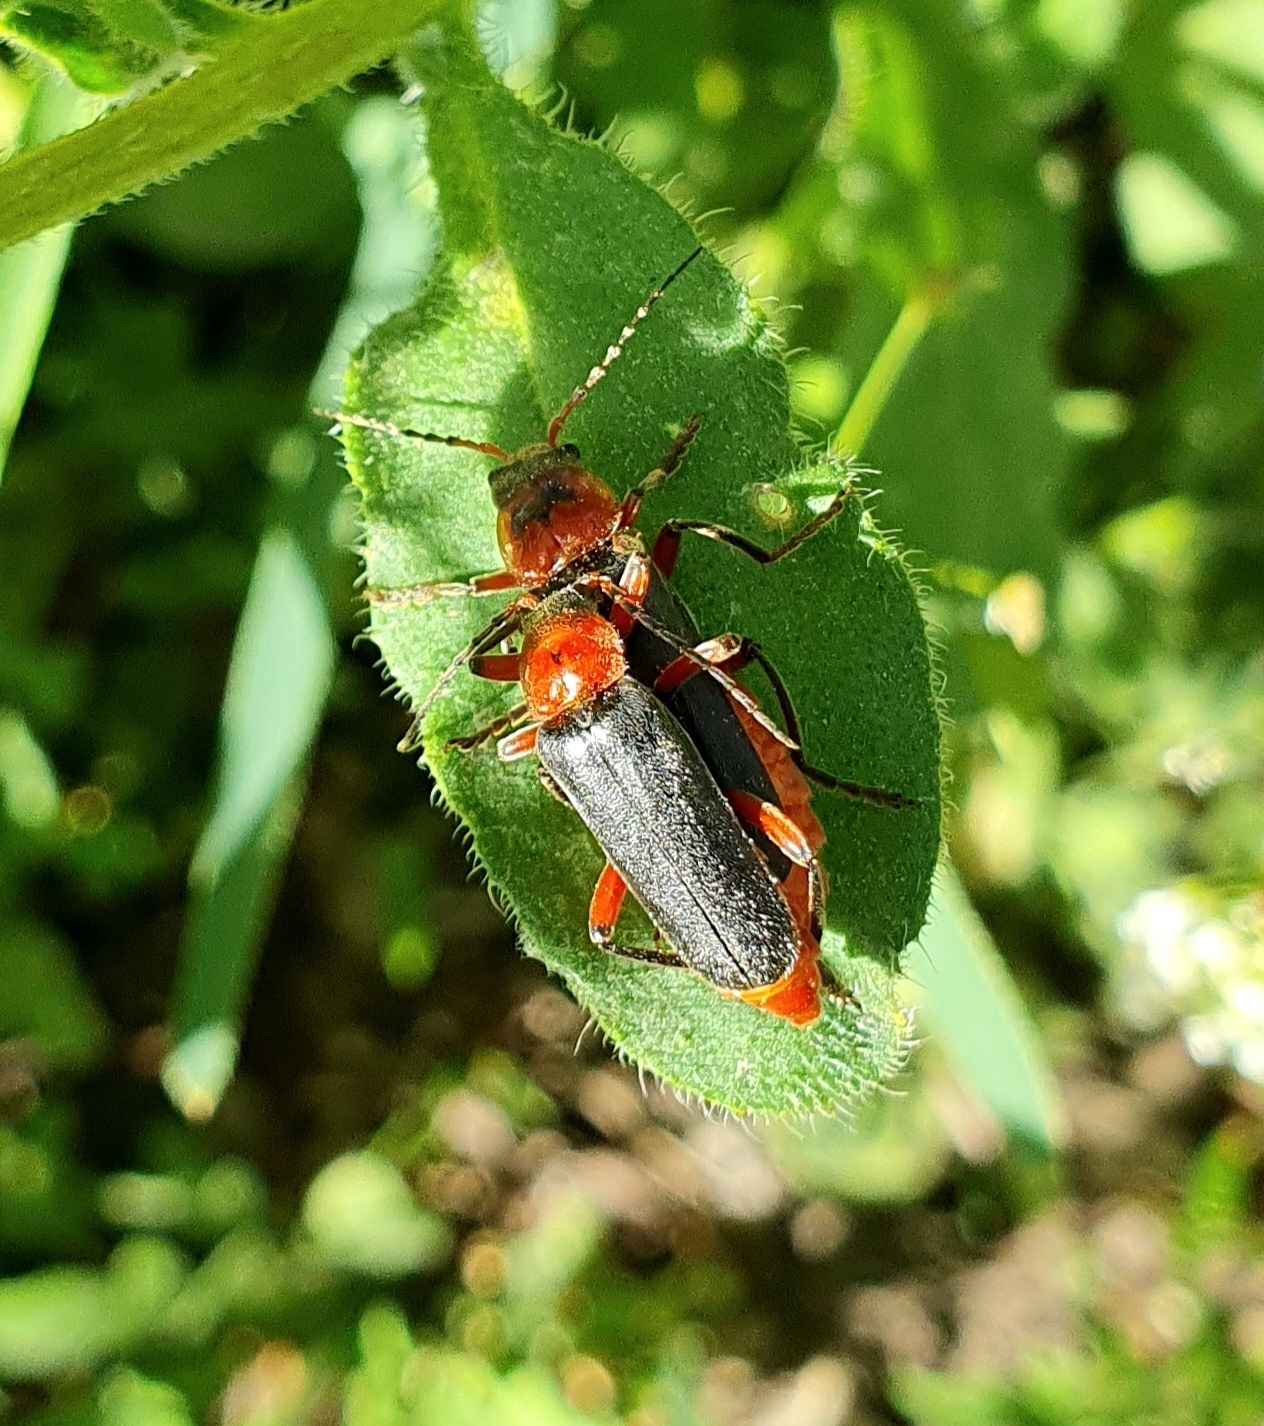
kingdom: Animalia
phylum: Arthropoda
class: Insecta
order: Coleoptera
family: Cantharidae
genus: Cantharis
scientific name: Cantharis rustica
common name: Soldier beetle
